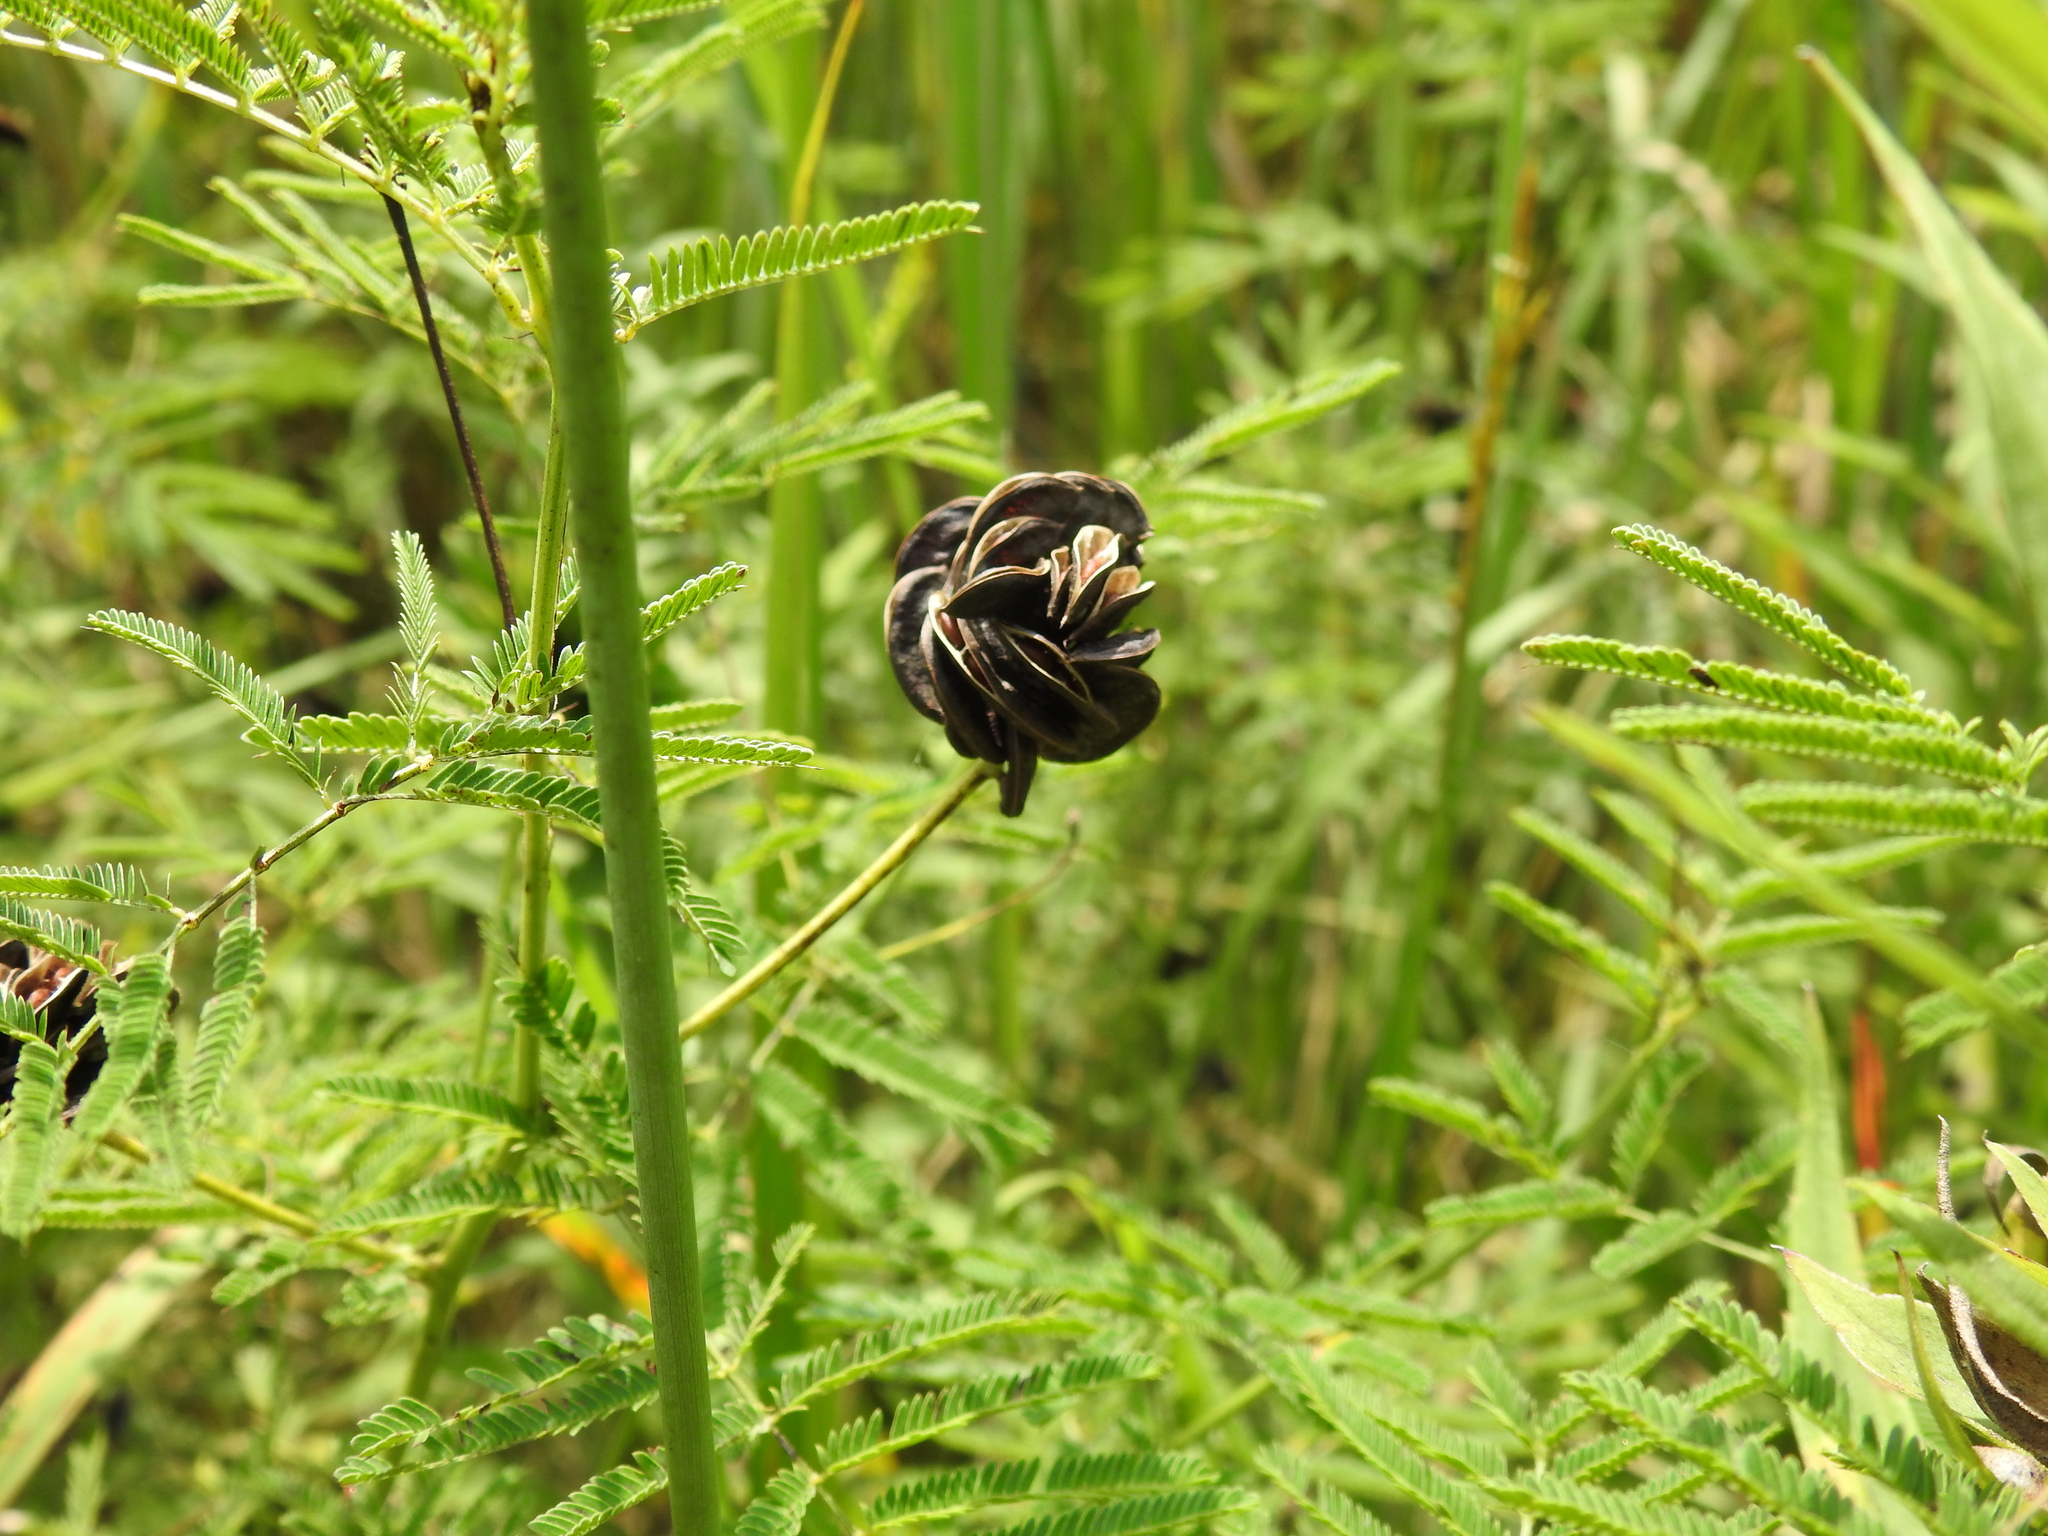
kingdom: Plantae
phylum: Tracheophyta
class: Magnoliopsida
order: Fabales
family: Fabaceae
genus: Desmanthus
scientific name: Desmanthus illinoensis
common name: Illinois bundle-flower
